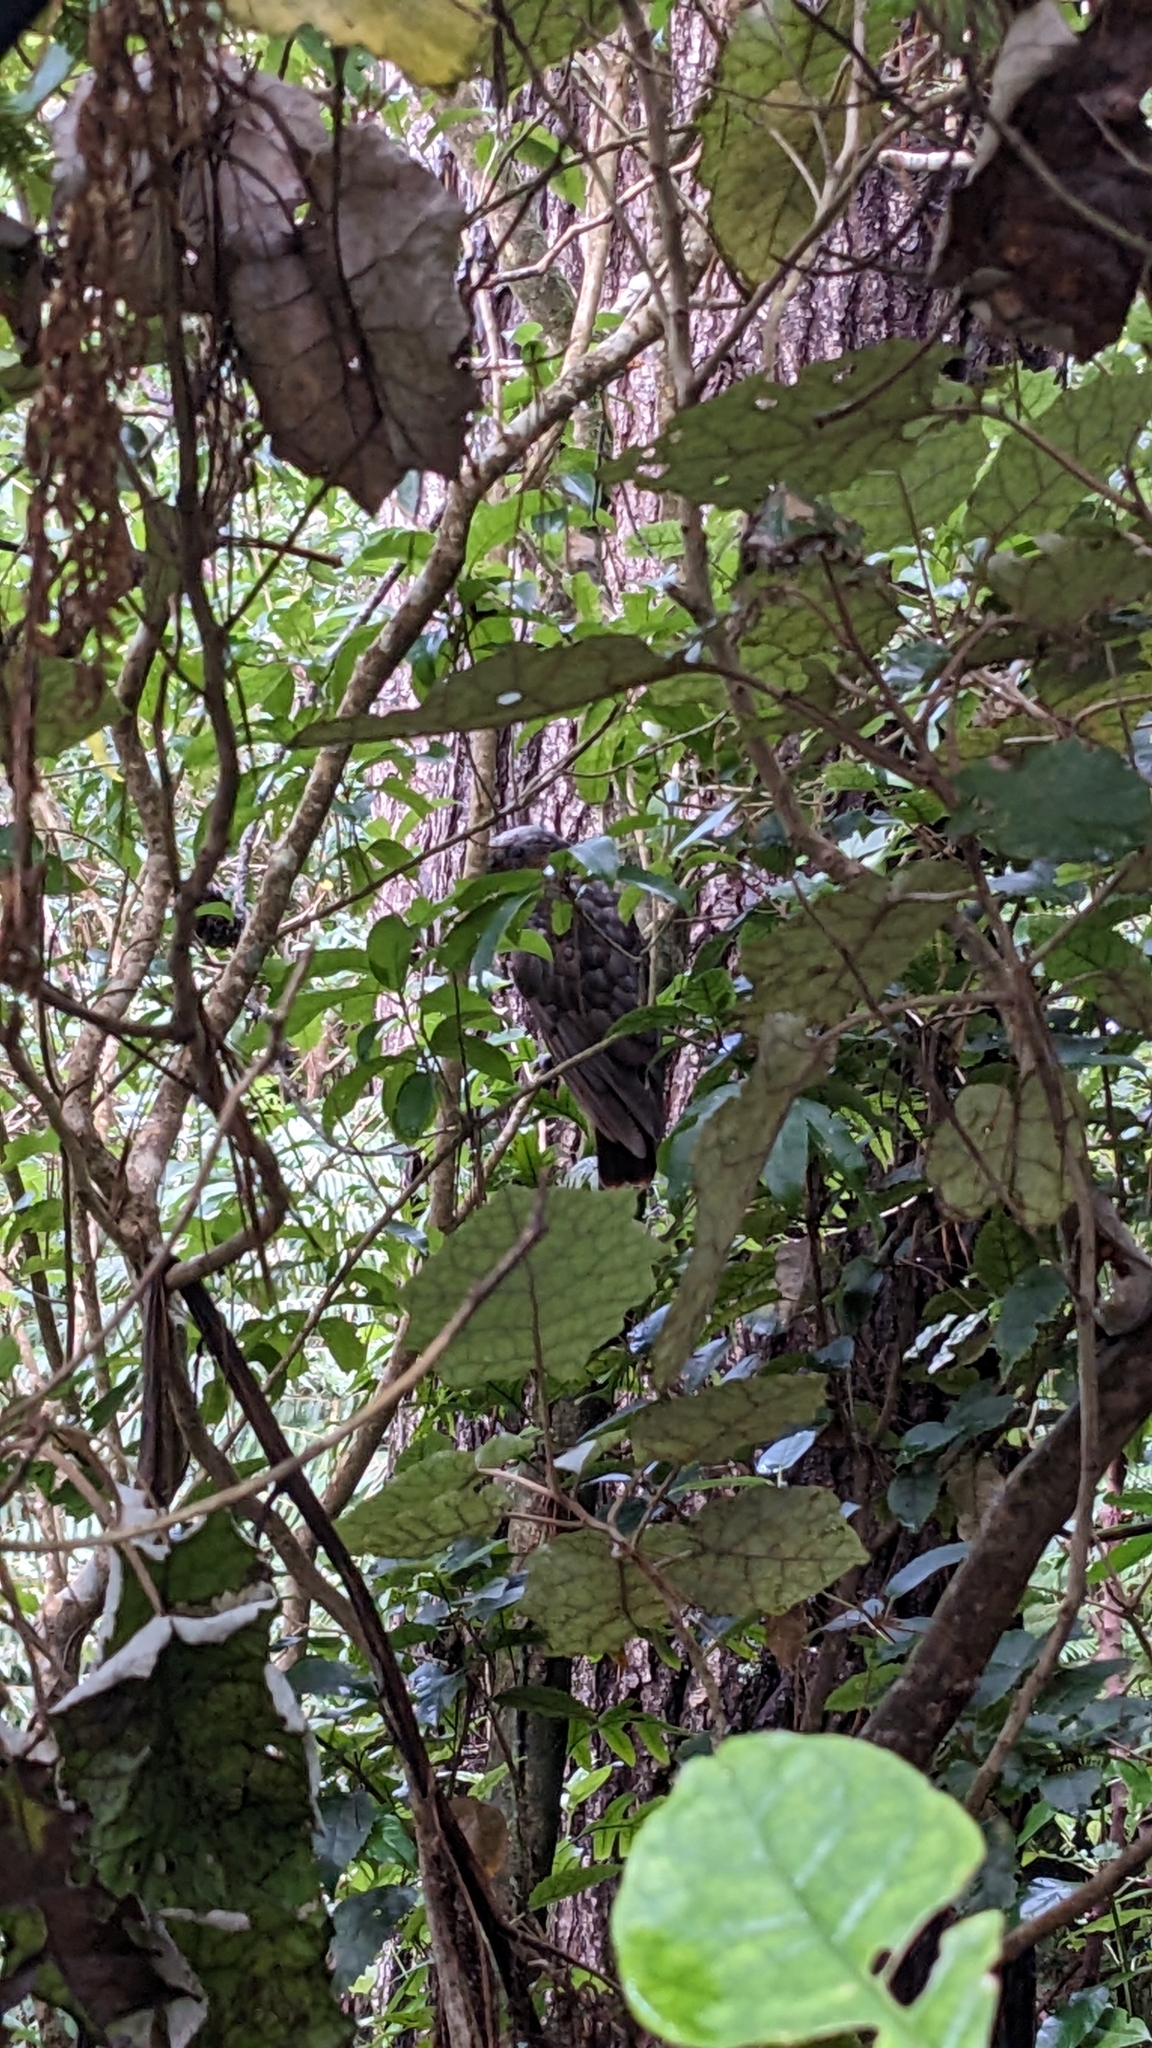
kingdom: Animalia
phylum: Chordata
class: Aves
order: Psittaciformes
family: Psittacidae
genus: Nestor
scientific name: Nestor meridionalis
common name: New zealand kaka
